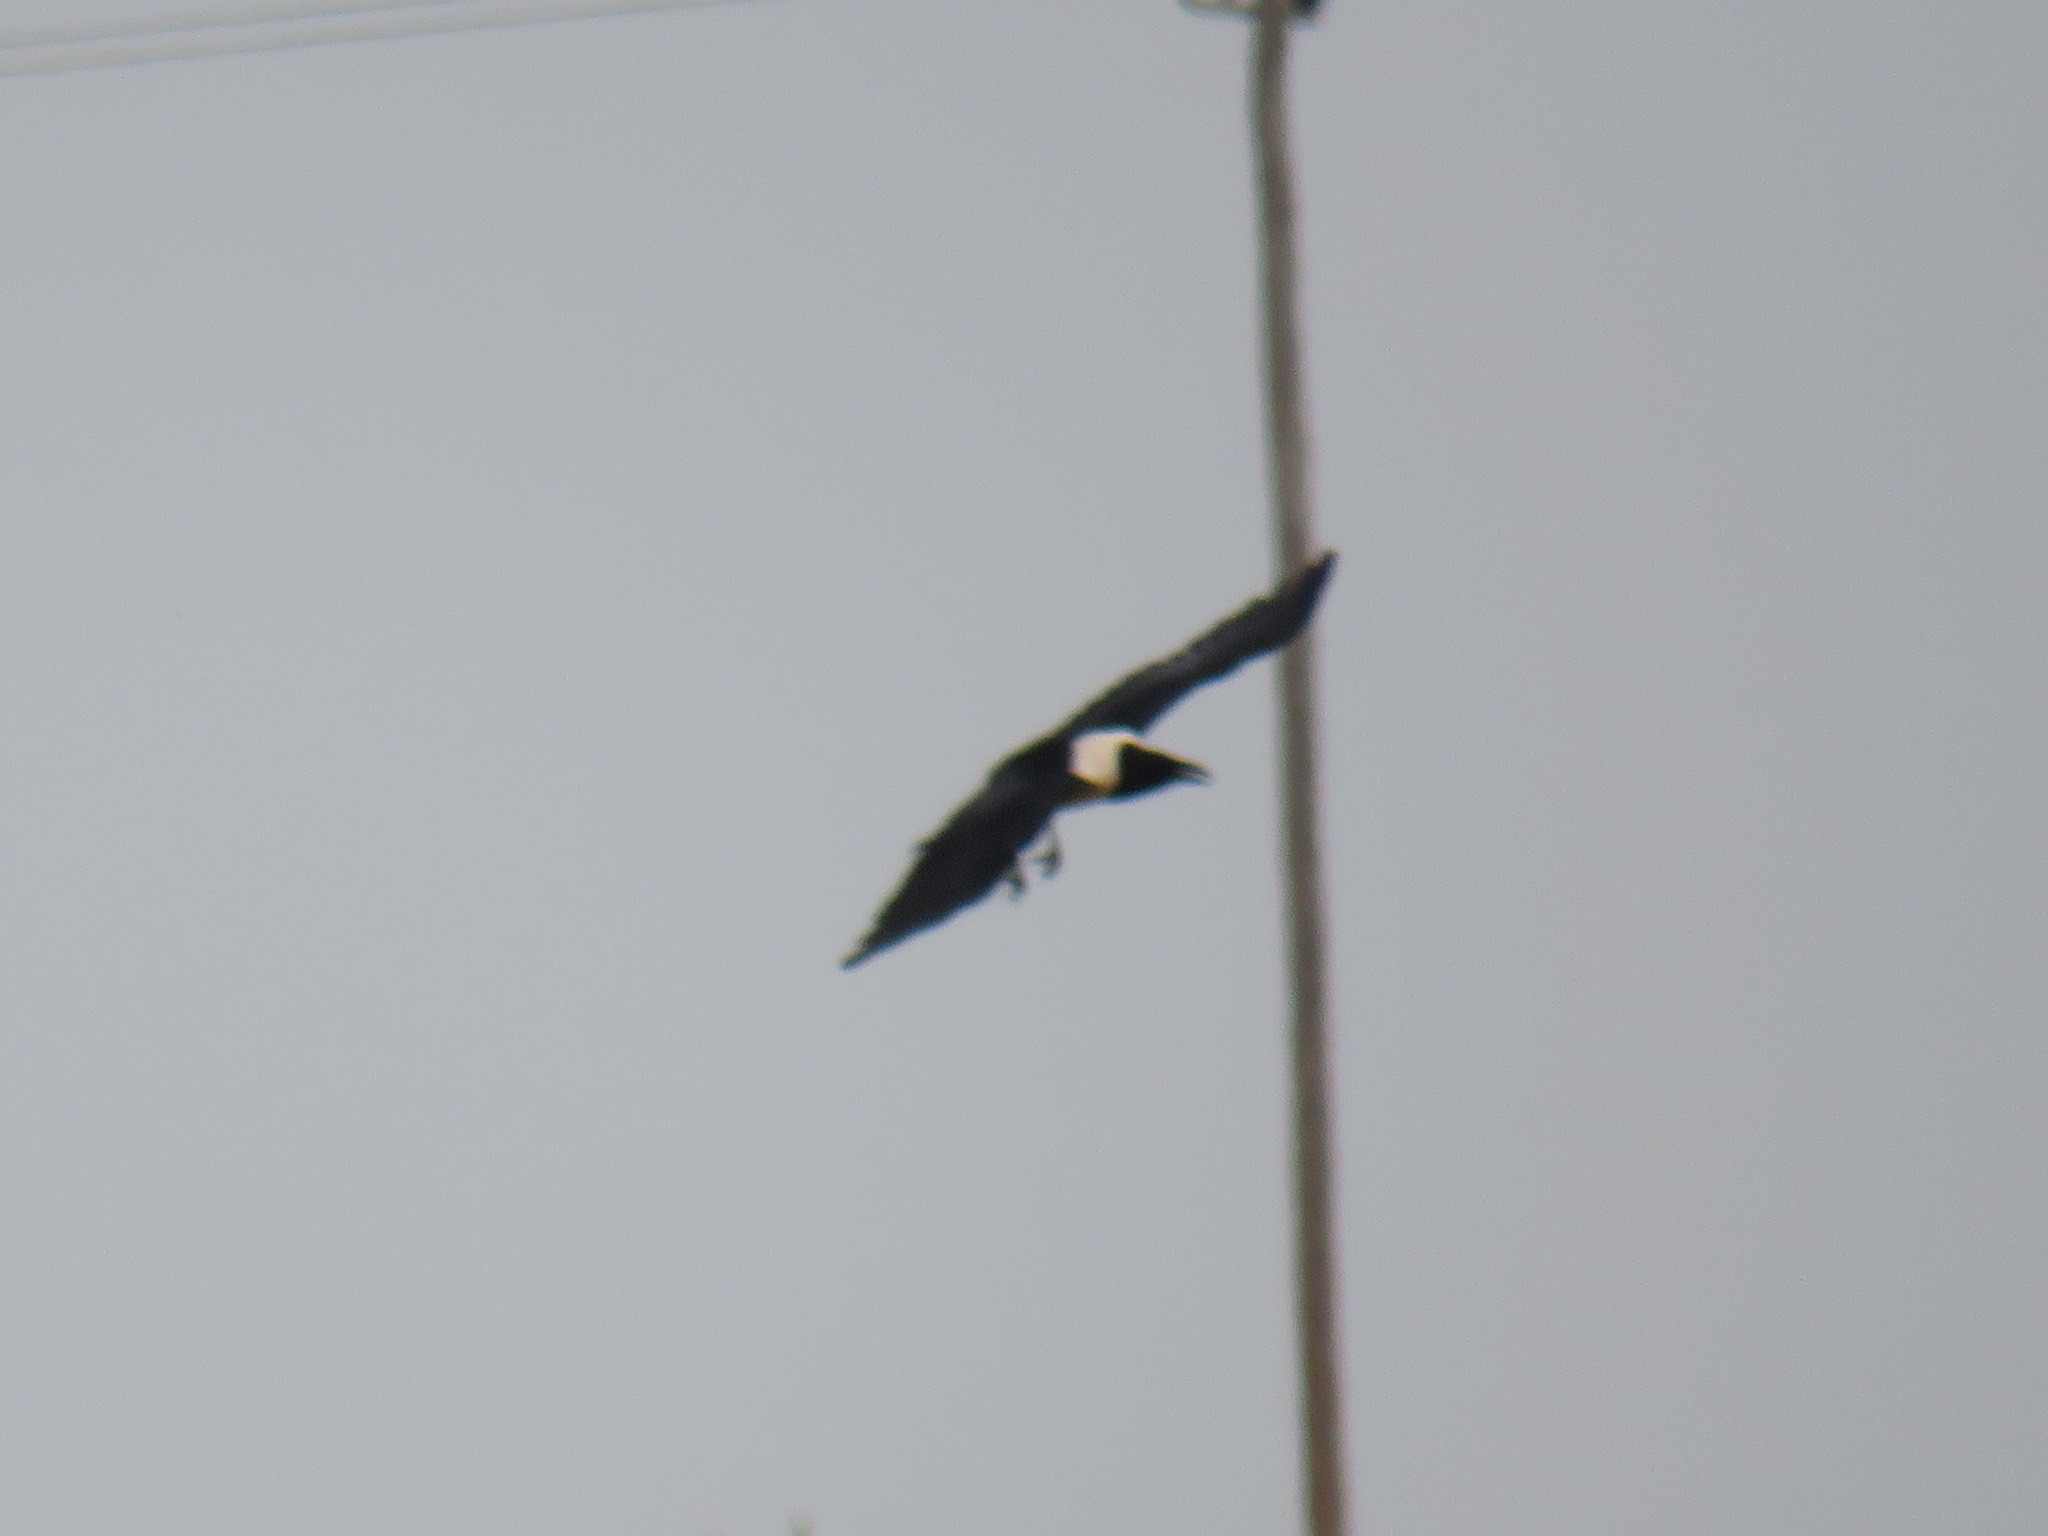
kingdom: Animalia
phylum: Chordata
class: Aves
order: Passeriformes
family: Corvidae
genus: Corvus
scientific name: Corvus albus
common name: Pied crow
